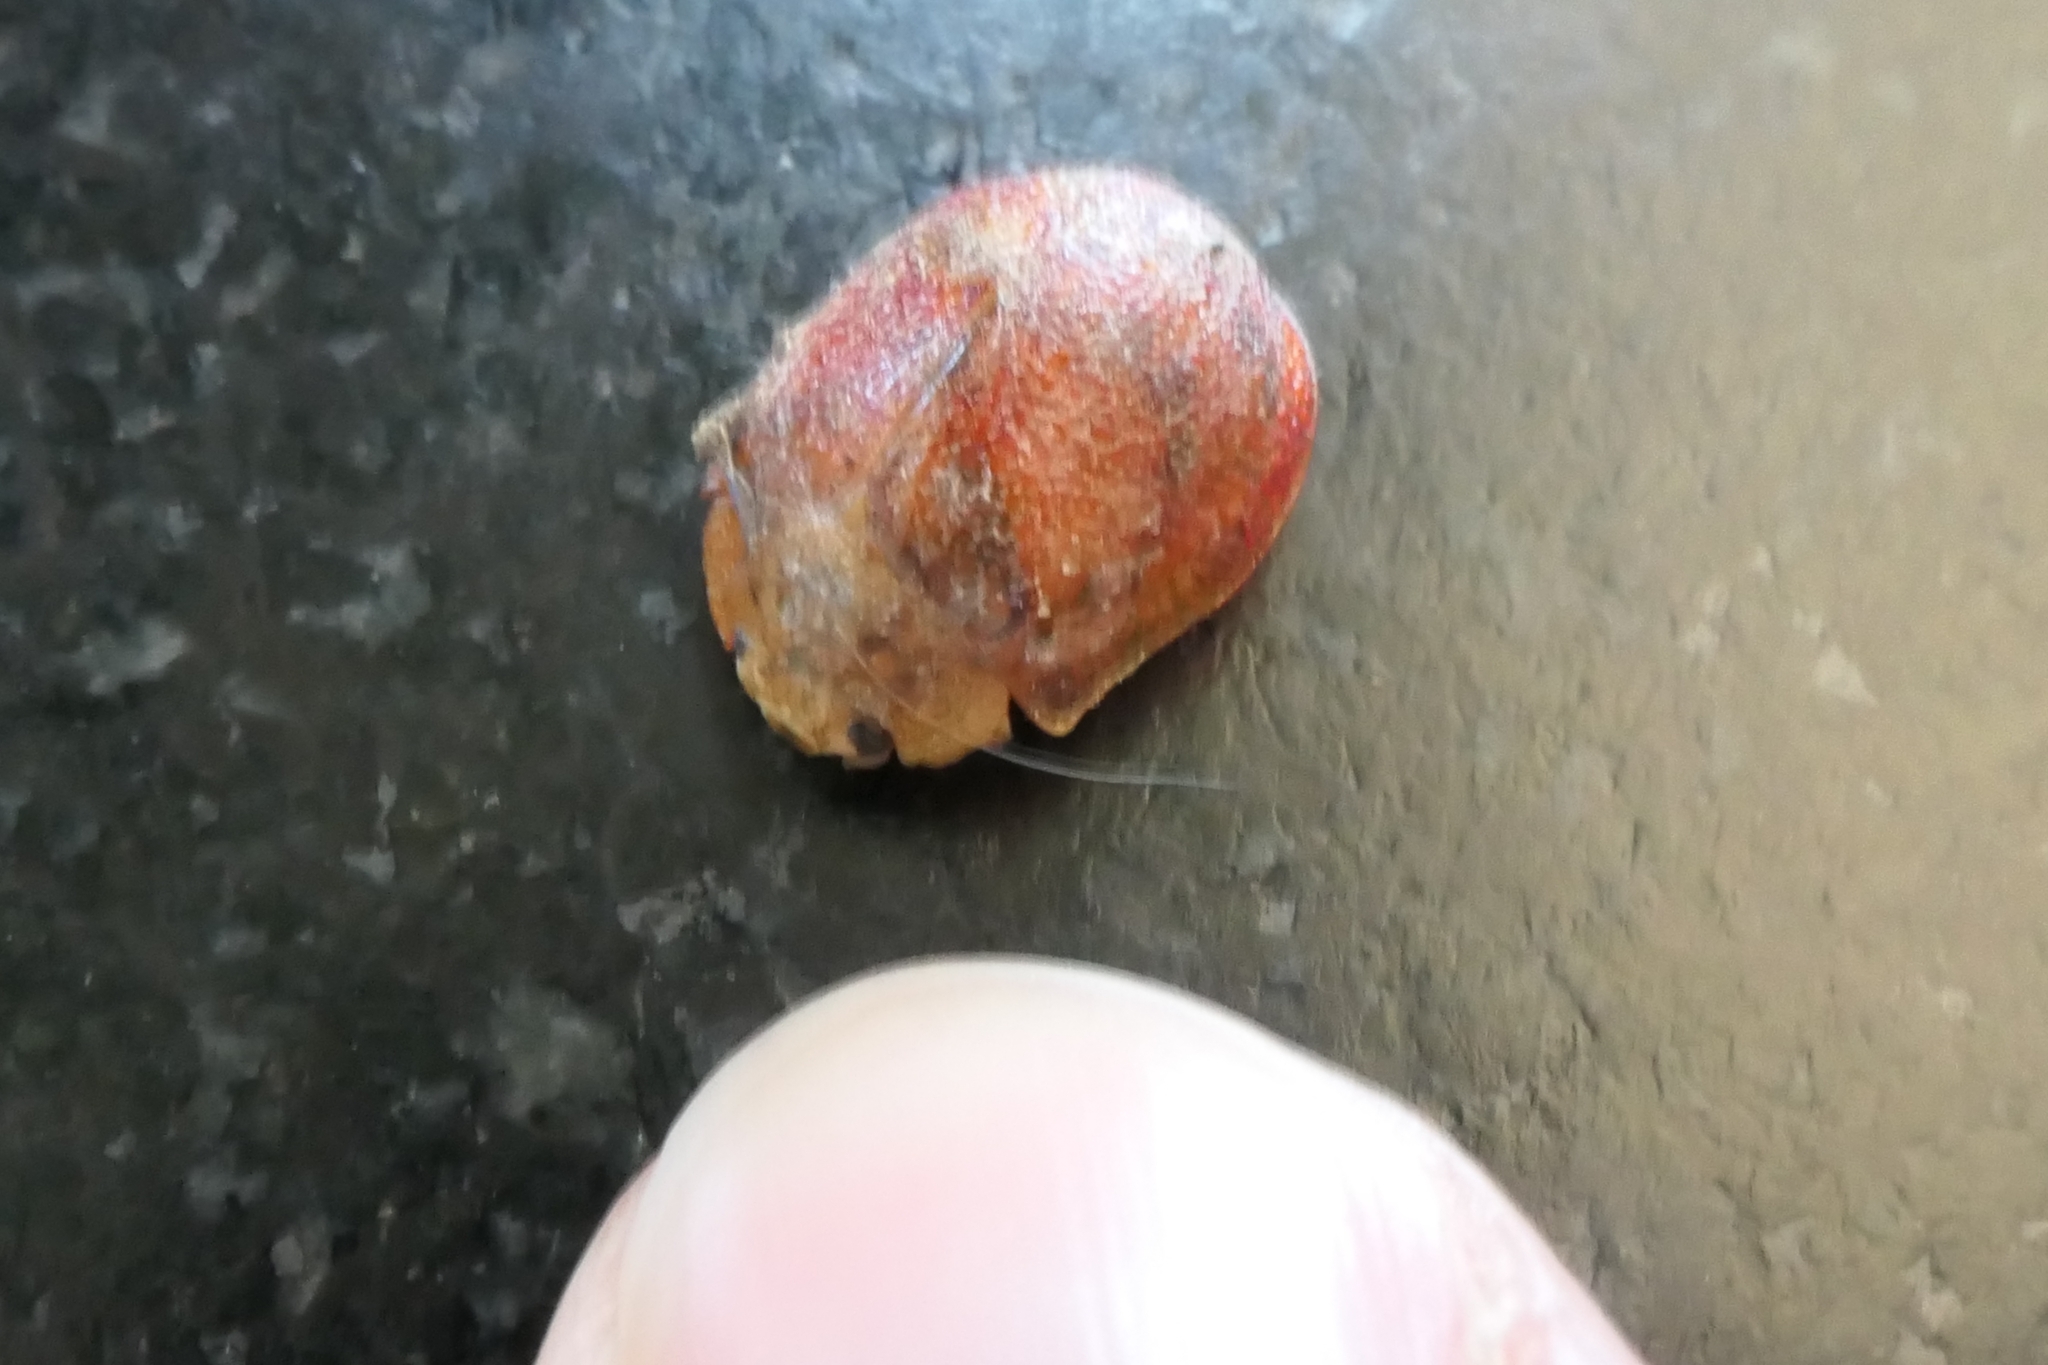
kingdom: Animalia
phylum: Arthropoda
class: Insecta
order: Coleoptera
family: Chrysomelidae
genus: Paropsis
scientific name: Paropsis charybdis
